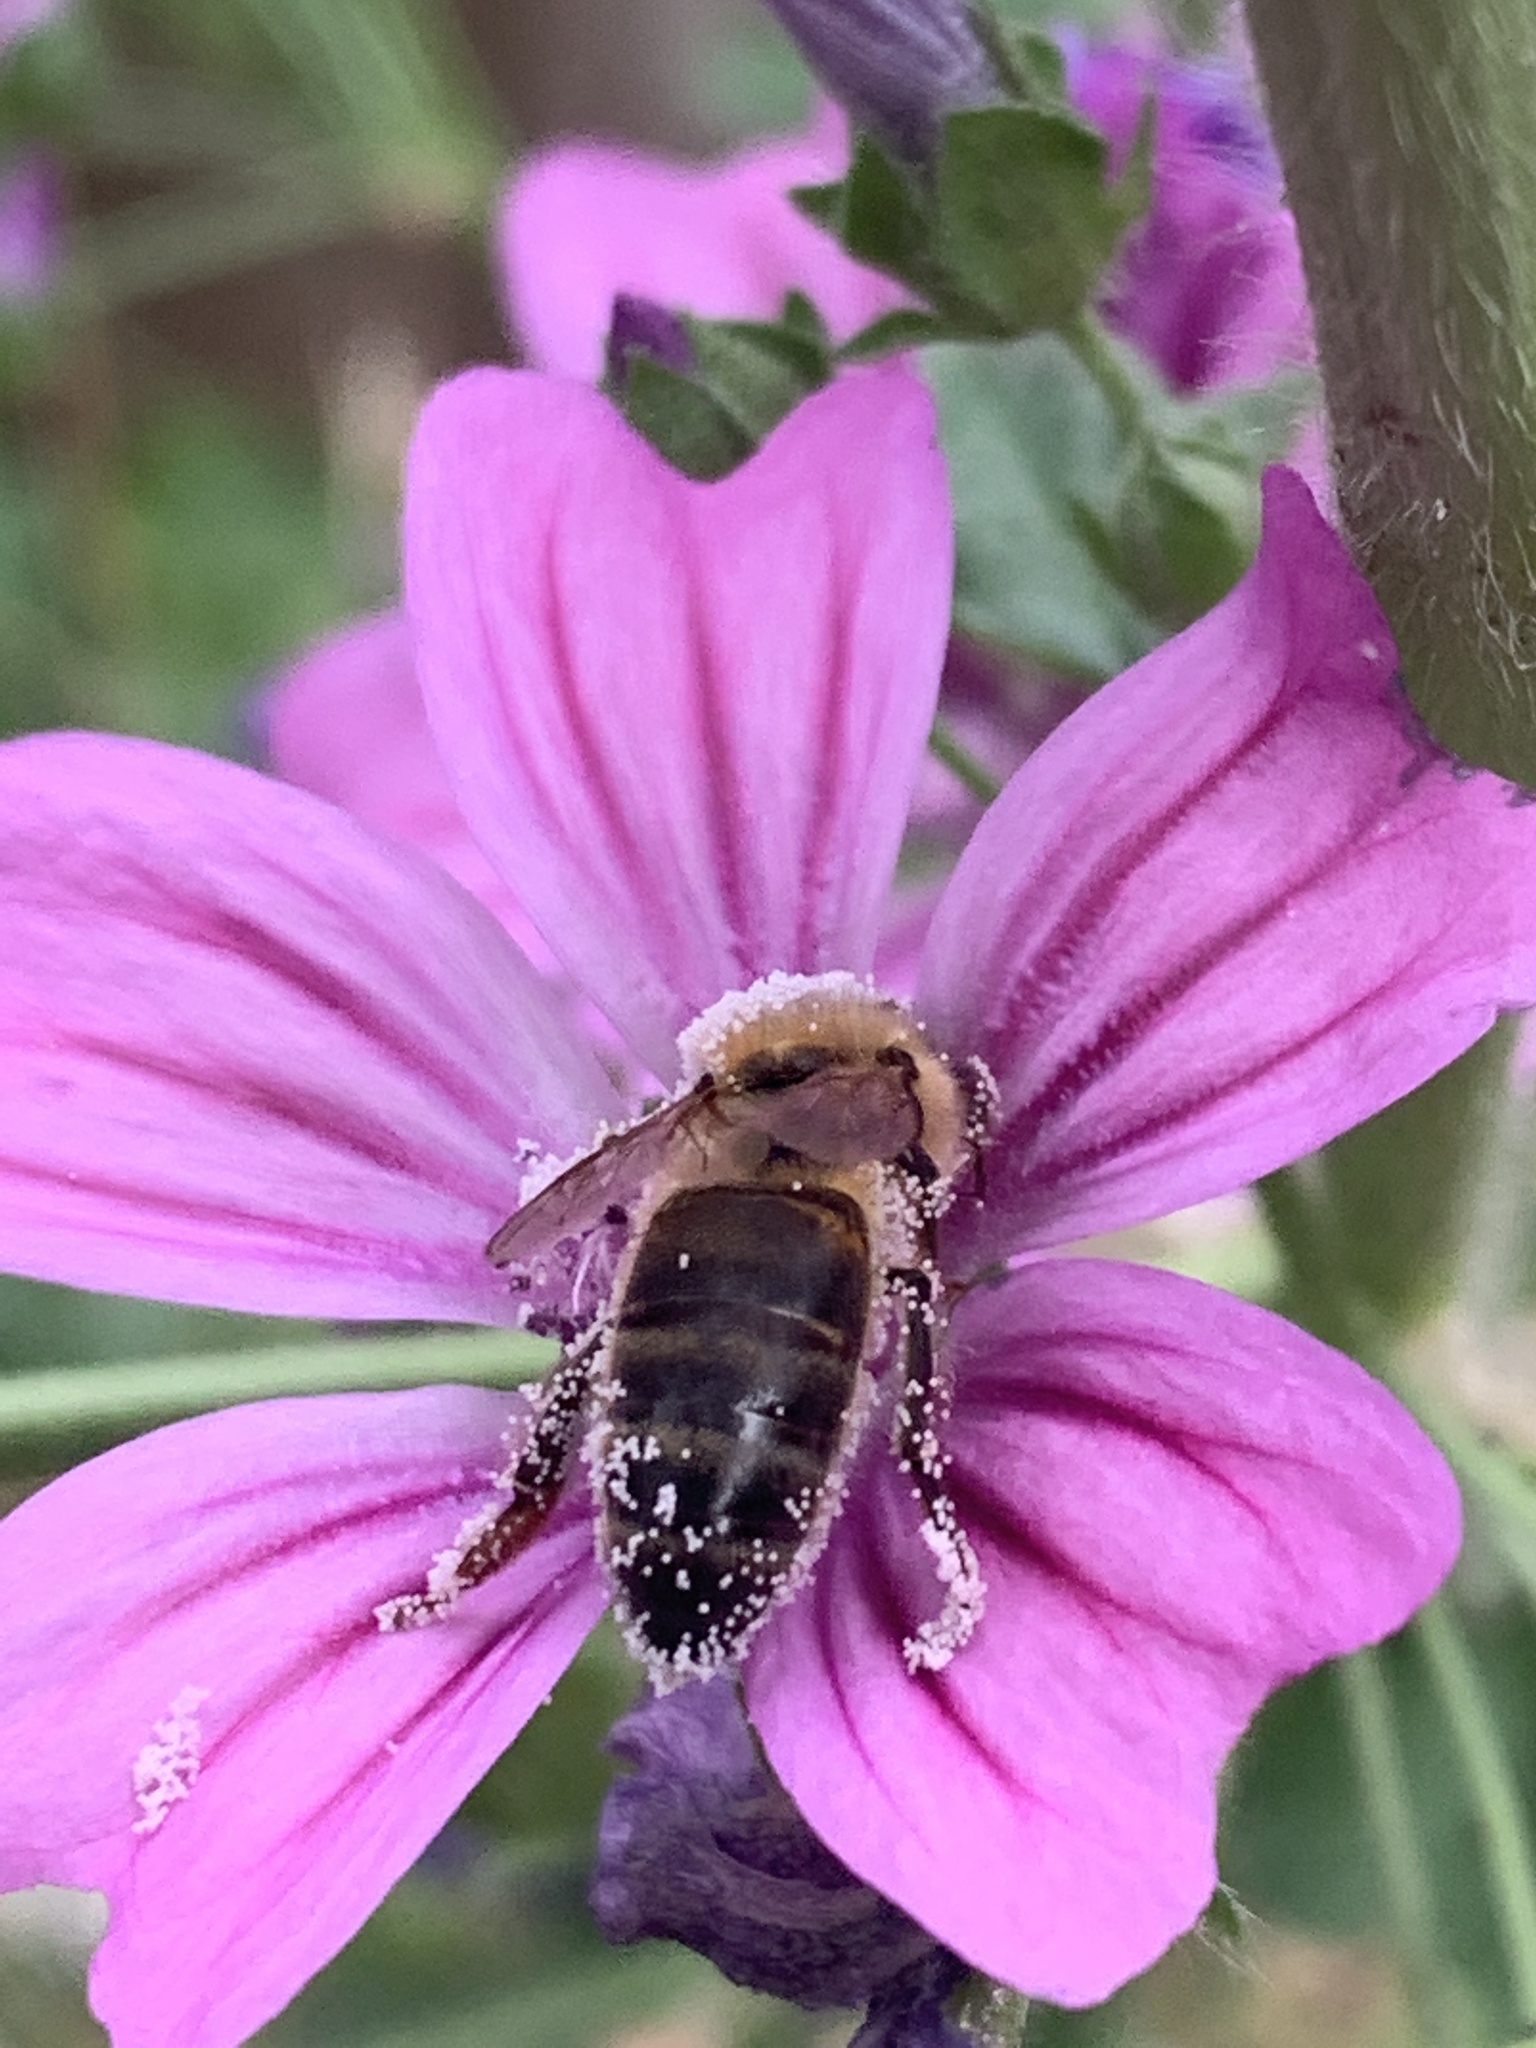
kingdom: Animalia
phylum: Arthropoda
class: Insecta
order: Hymenoptera
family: Apidae
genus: Apis
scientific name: Apis mellifera
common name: Honey bee
